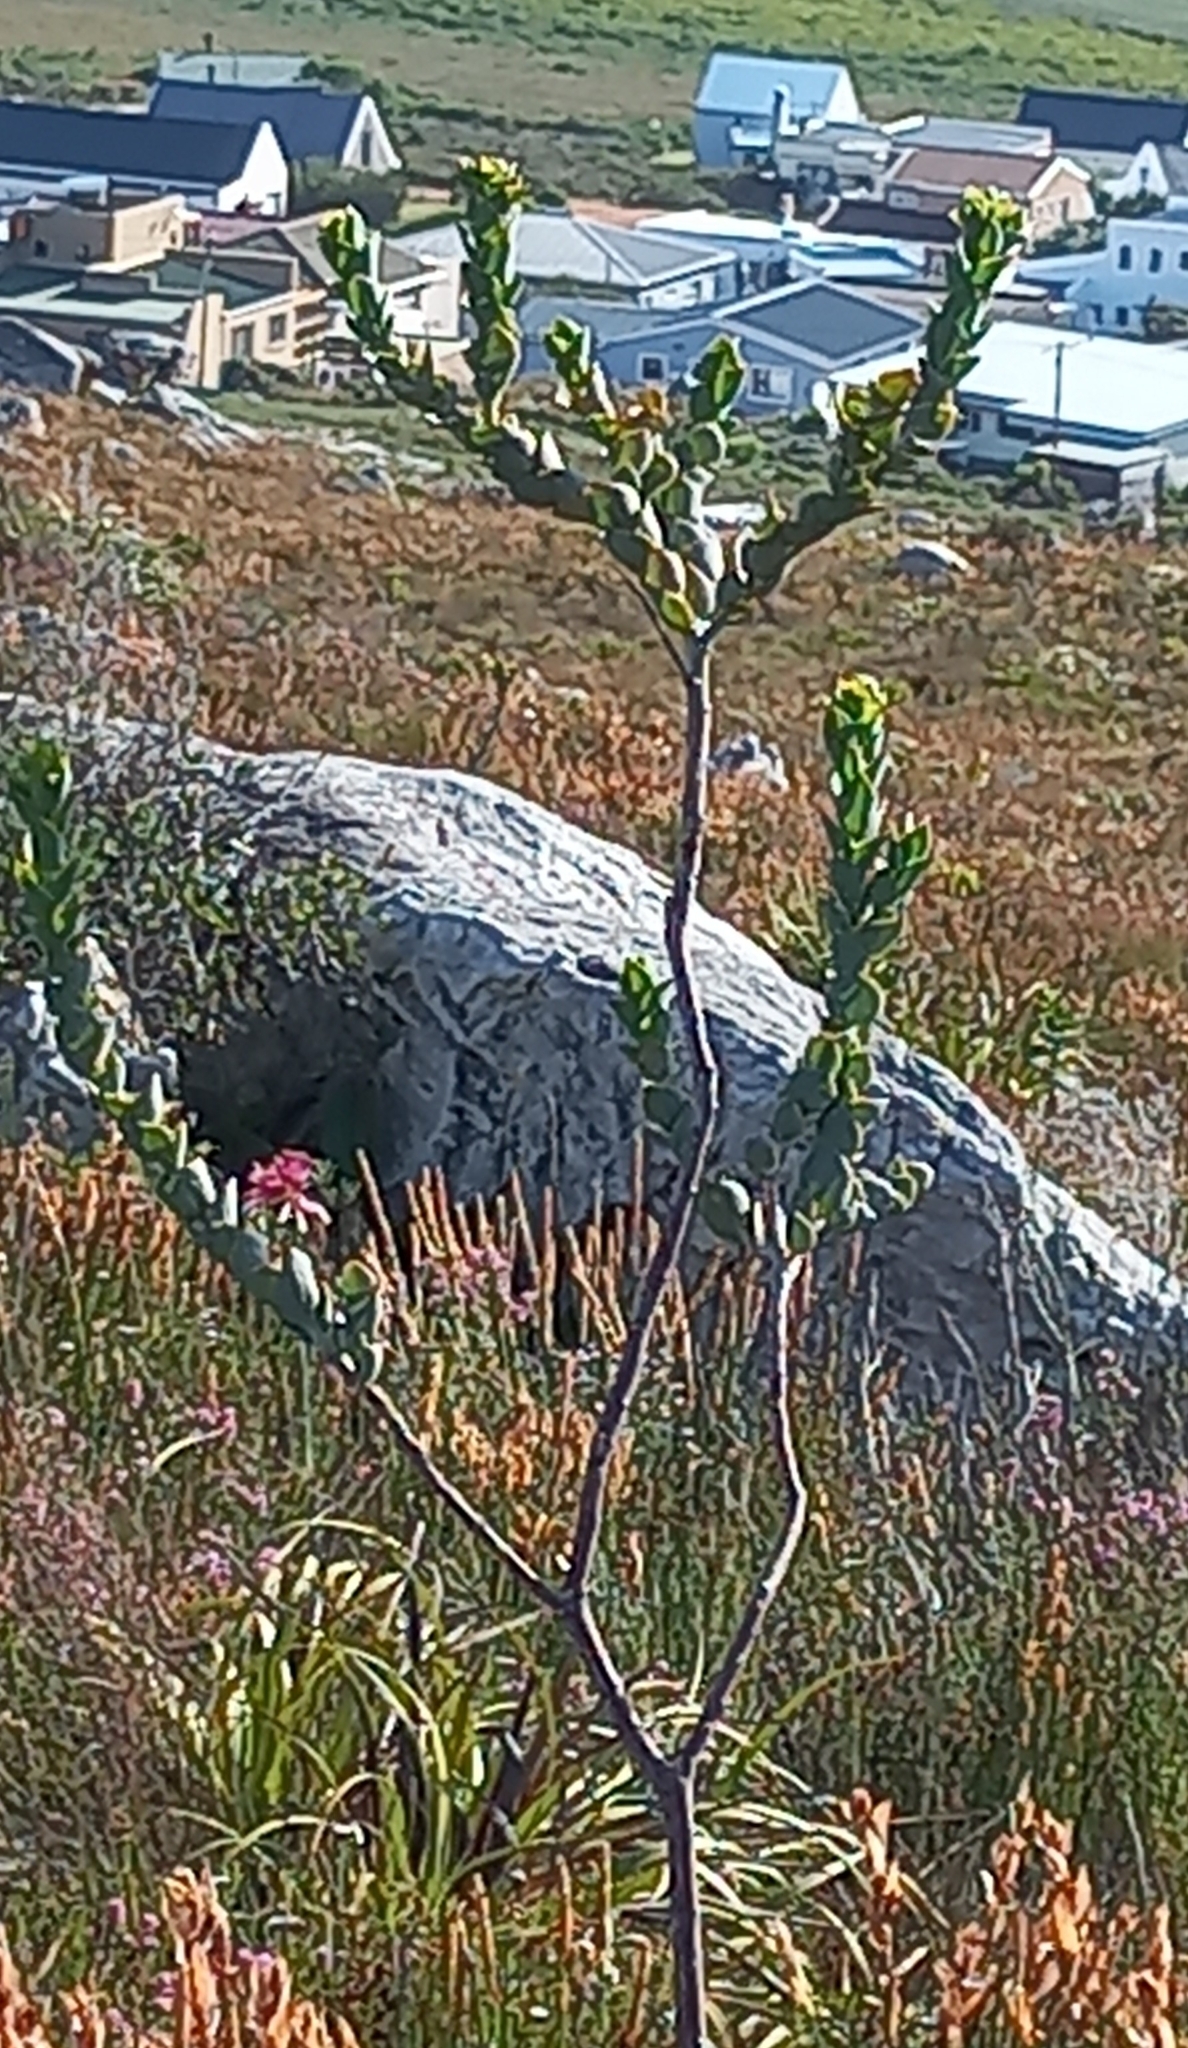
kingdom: Plantae
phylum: Tracheophyta
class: Magnoliopsida
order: Santalales
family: Thesiaceae
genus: Thesium
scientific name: Thesium euphorbioides
